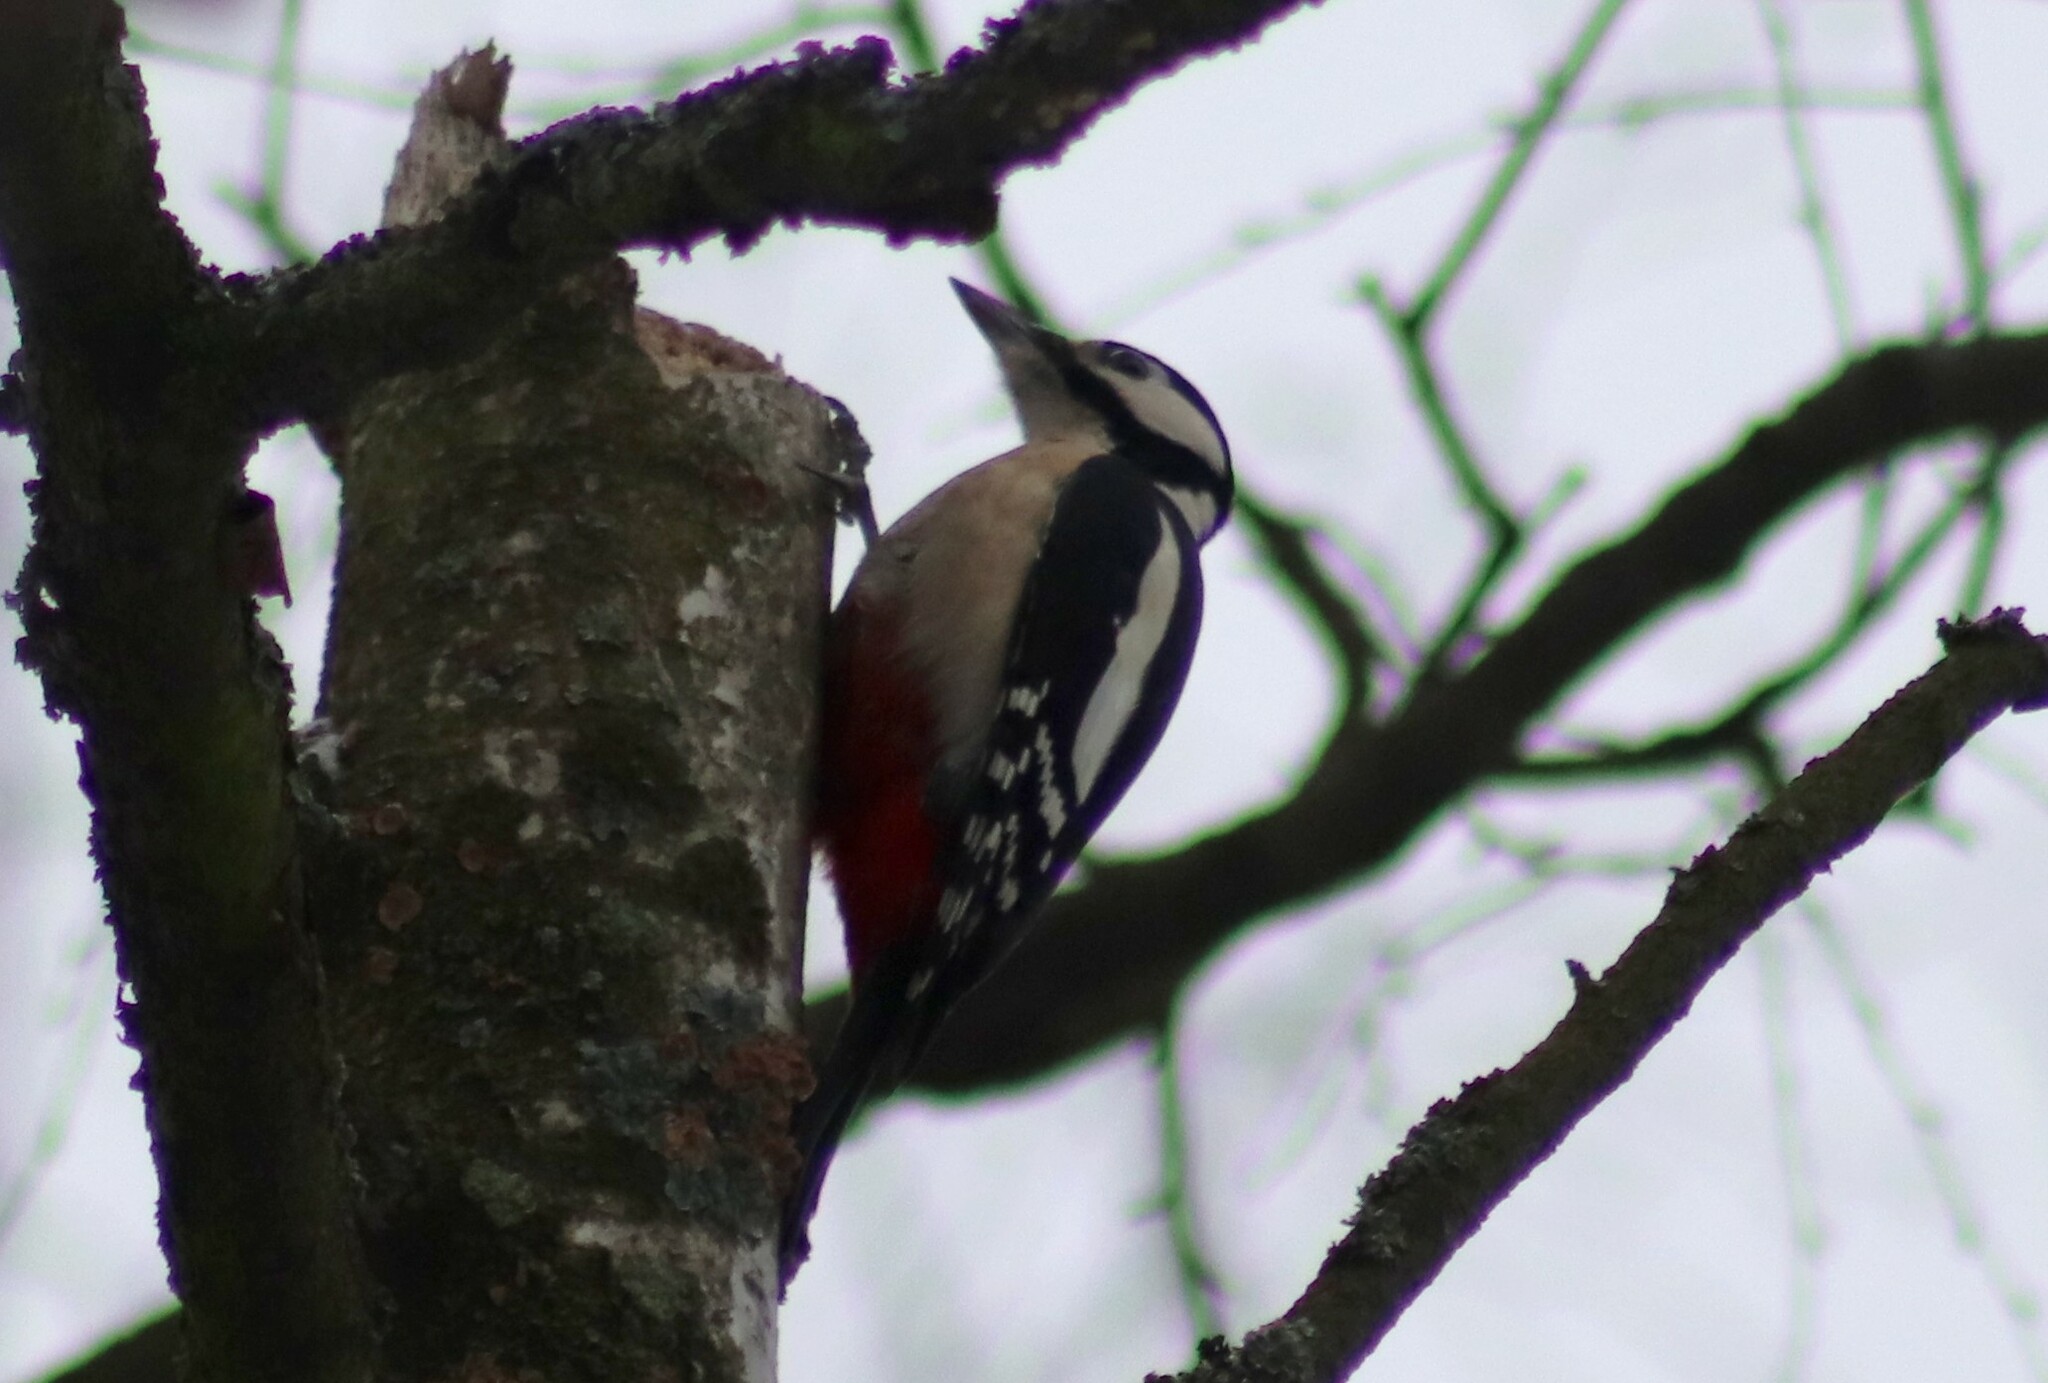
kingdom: Animalia
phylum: Chordata
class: Aves
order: Piciformes
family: Picidae
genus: Dendrocopos
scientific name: Dendrocopos major
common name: Great spotted woodpecker
